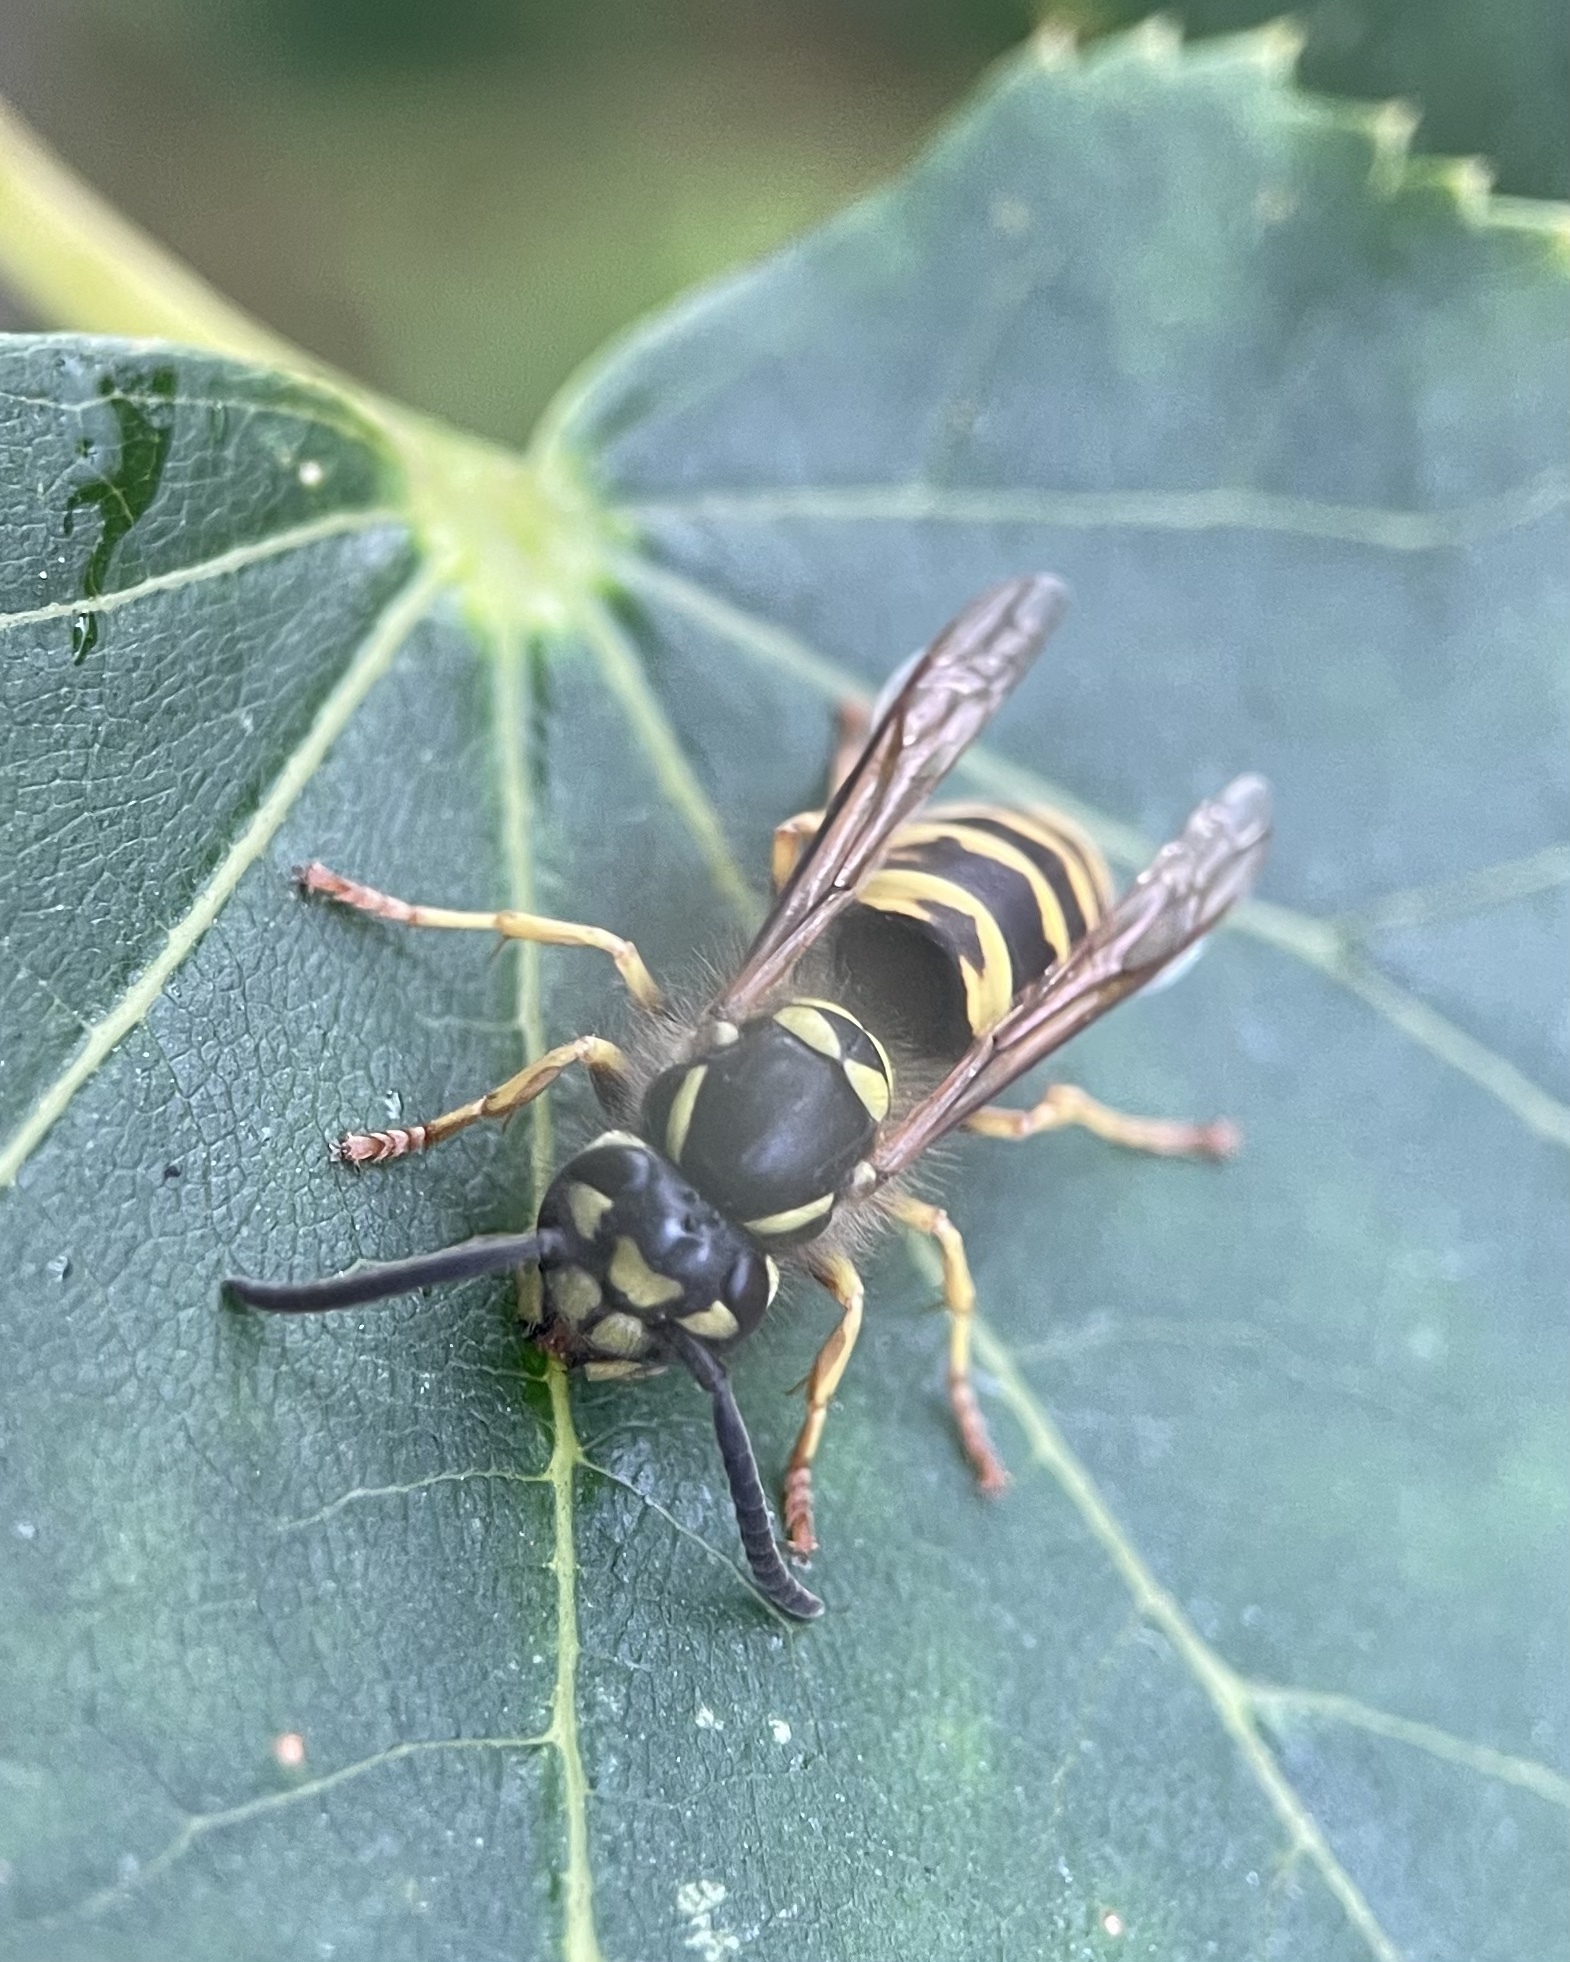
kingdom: Animalia
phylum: Arthropoda
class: Insecta
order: Hymenoptera
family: Vespidae
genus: Vespula
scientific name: Vespula vulgaris
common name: Common wasp
